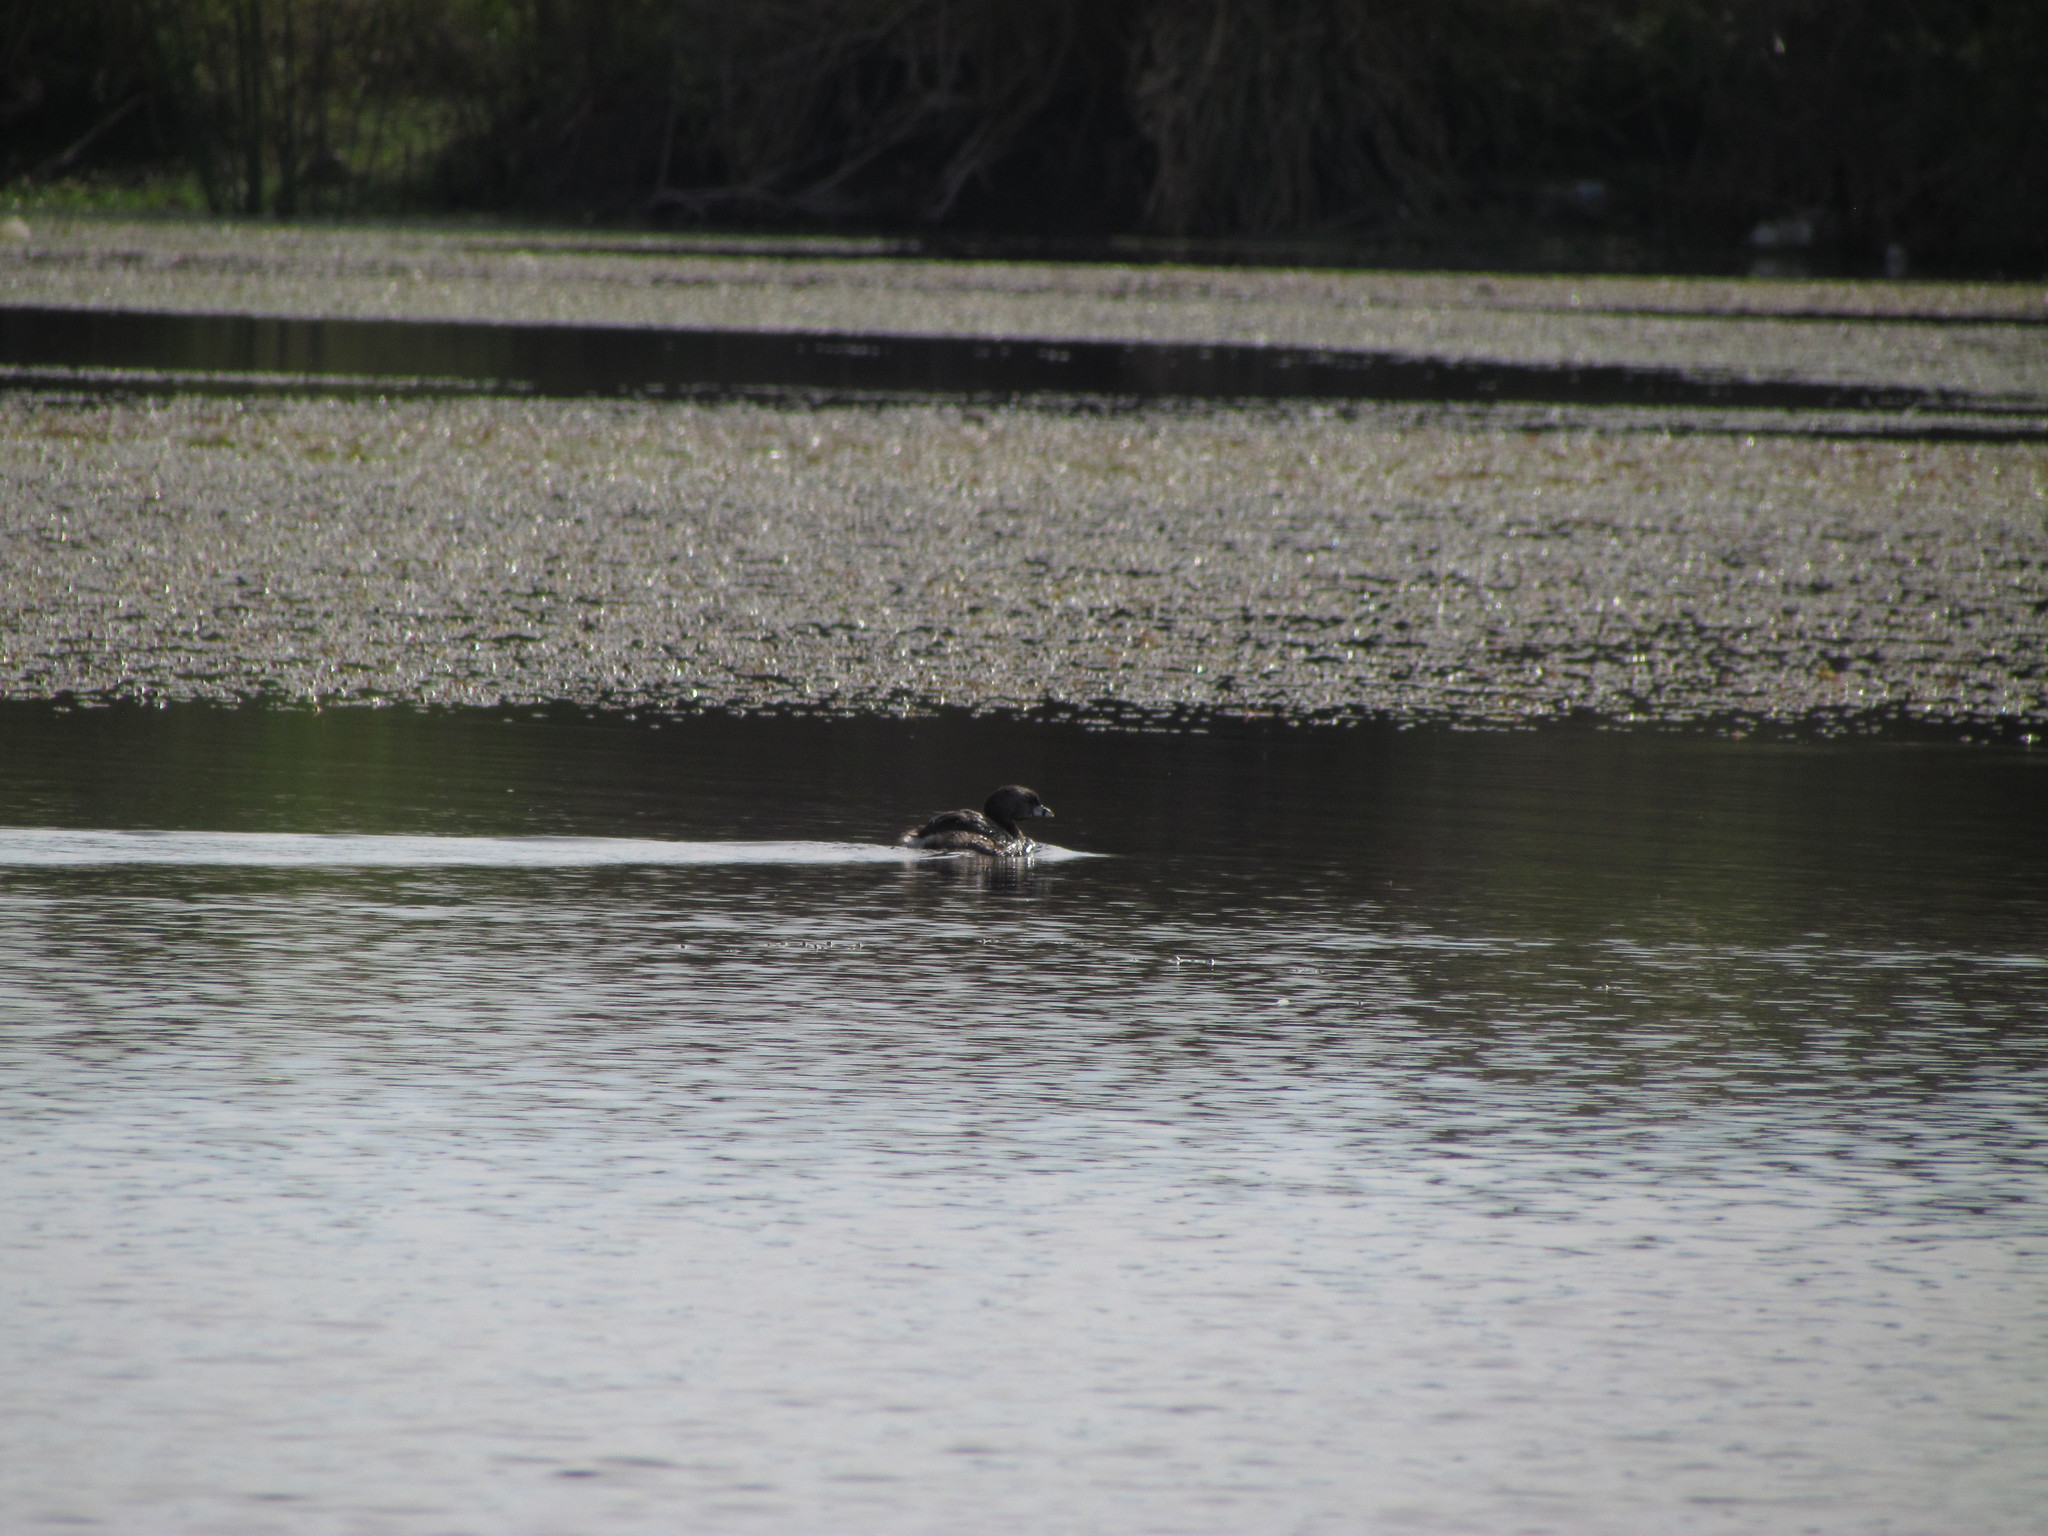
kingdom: Animalia
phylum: Chordata
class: Aves
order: Podicipediformes
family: Podicipedidae
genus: Podilymbus
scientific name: Podilymbus podiceps
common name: Pied-billed grebe
